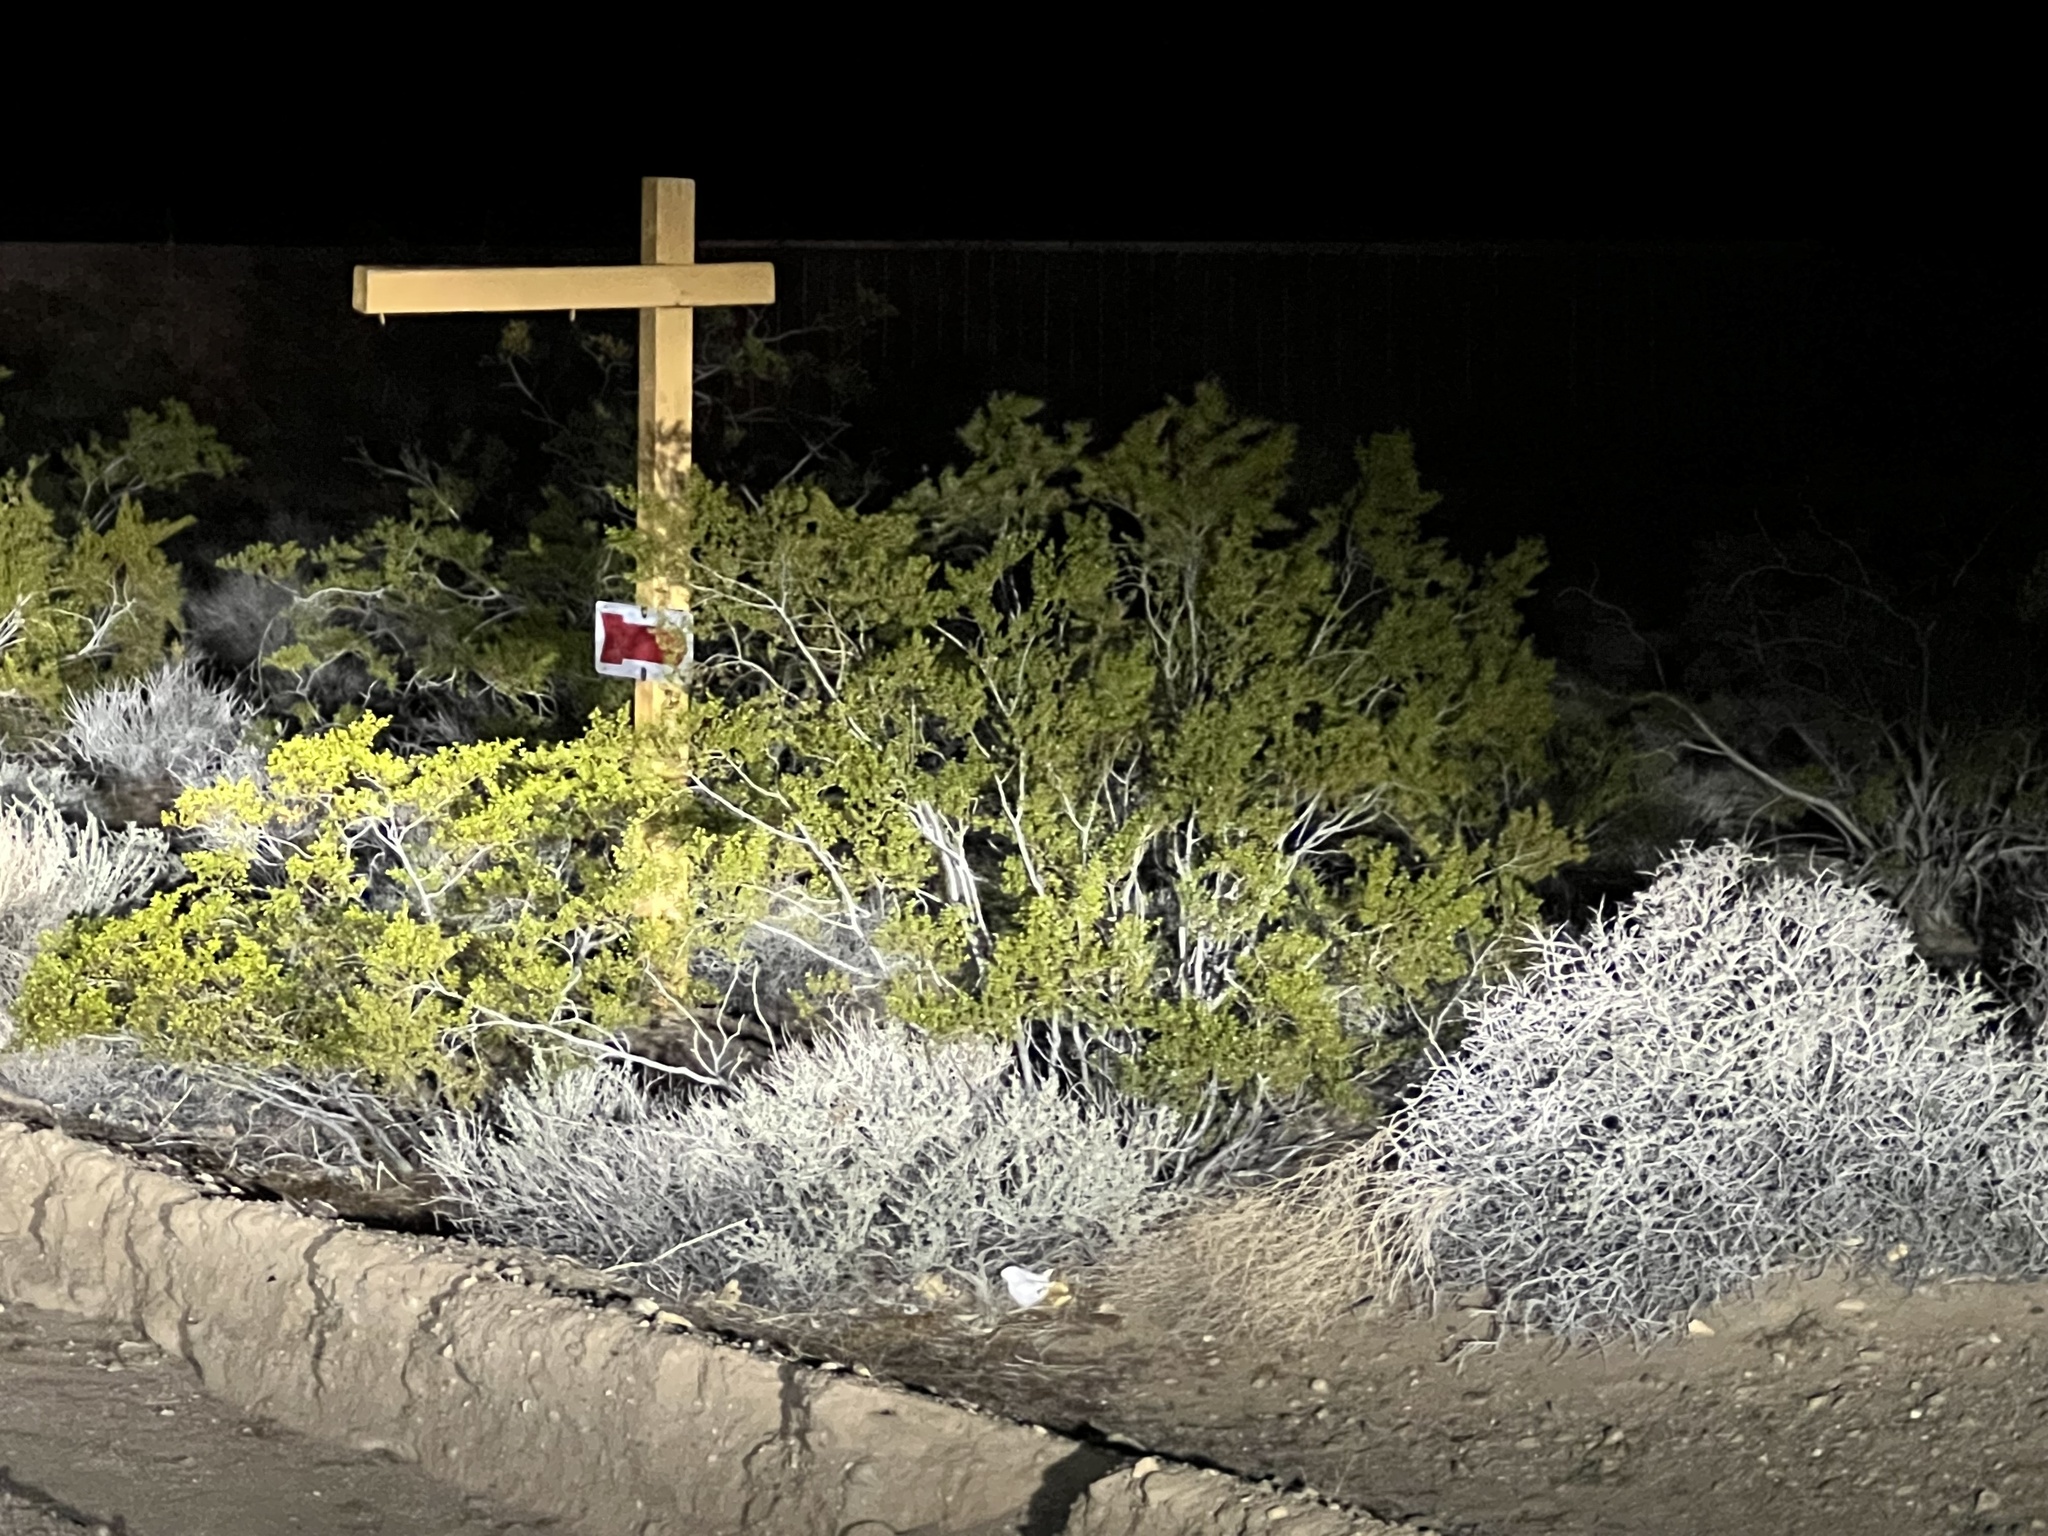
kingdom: Plantae
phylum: Tracheophyta
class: Magnoliopsida
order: Zygophyllales
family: Zygophyllaceae
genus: Larrea
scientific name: Larrea tridentata
